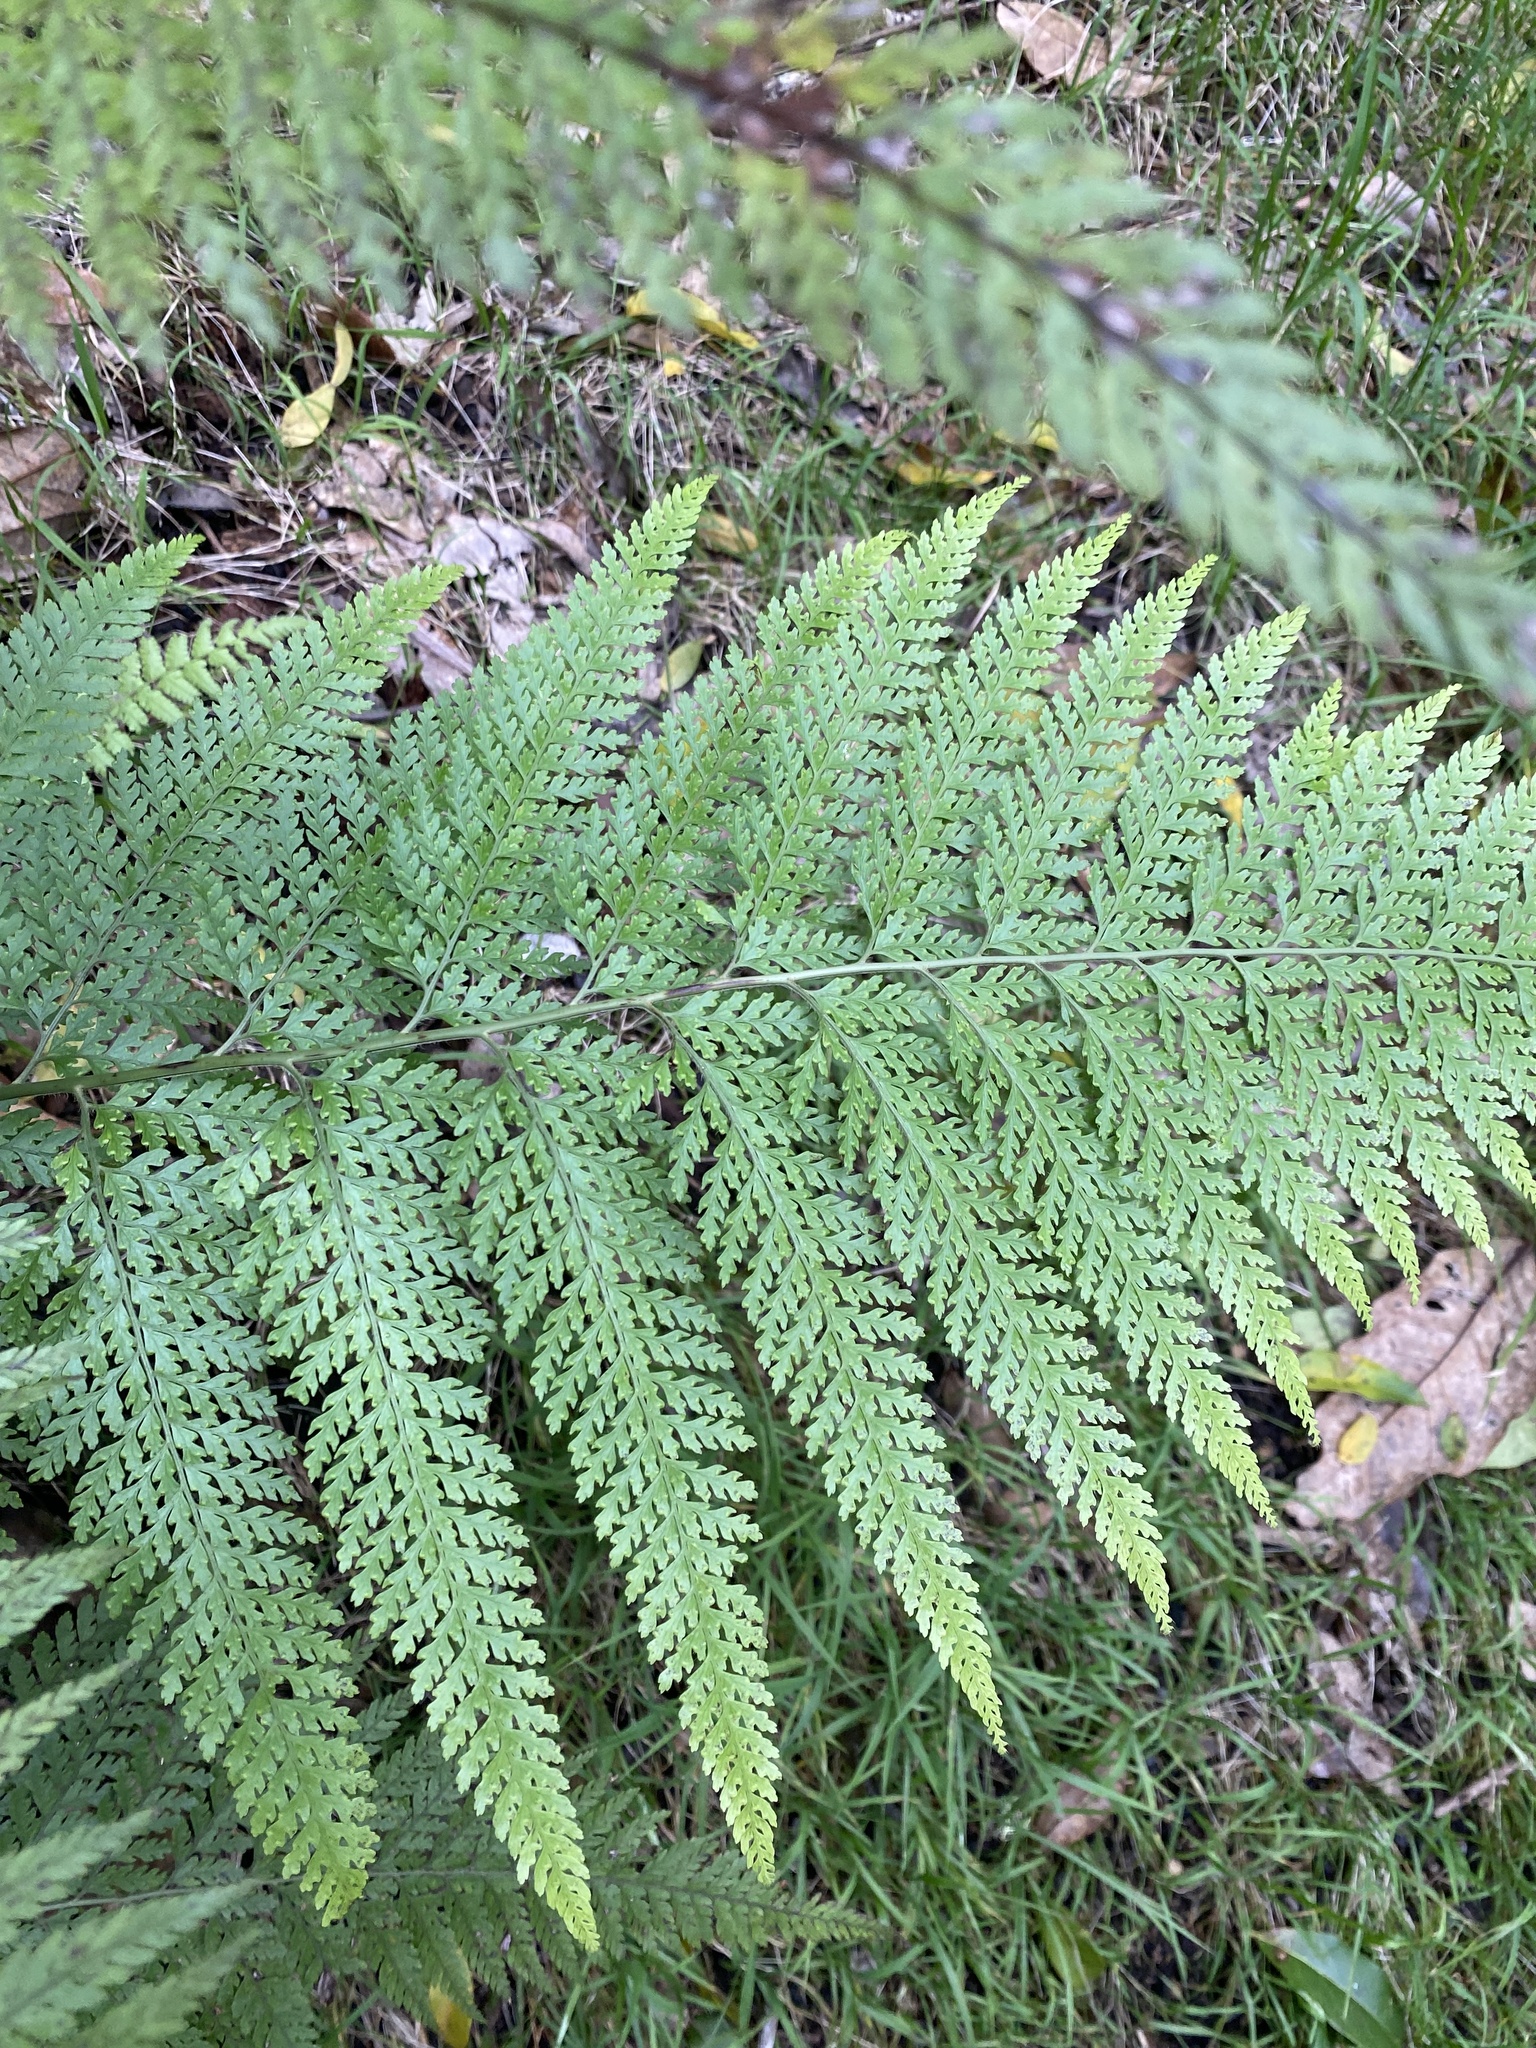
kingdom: Plantae
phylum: Tracheophyta
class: Polypodiopsida
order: Polypodiales
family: Dennstaedtiaceae
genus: Microlepia
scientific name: Microlepia setosa
